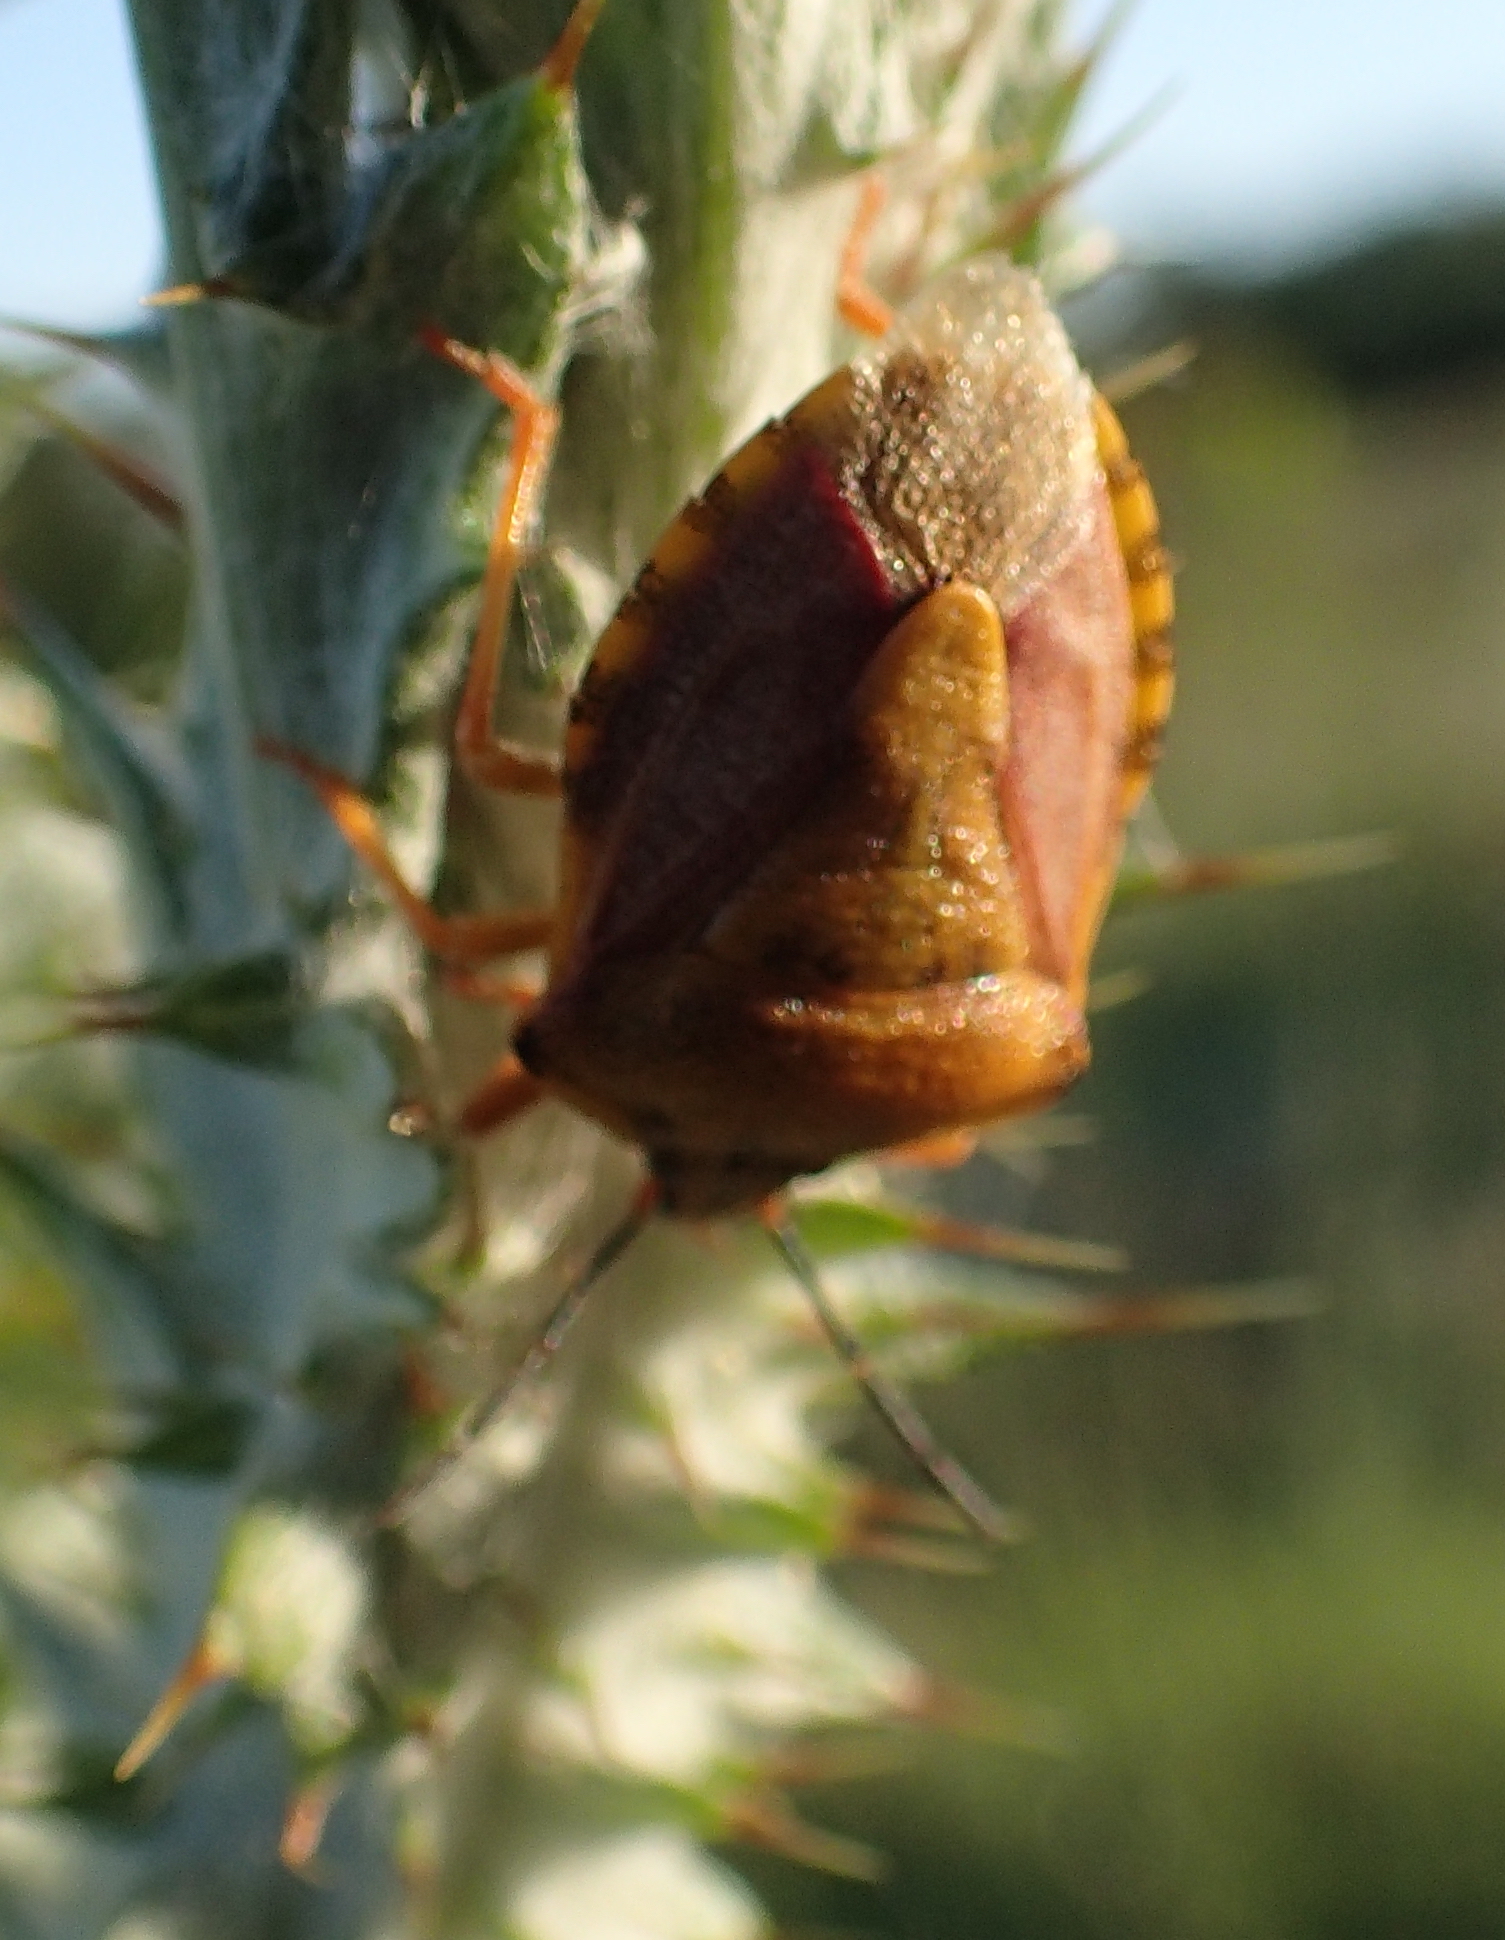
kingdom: Animalia
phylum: Arthropoda
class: Insecta
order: Hemiptera
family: Pentatomidae
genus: Carpocoris
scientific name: Carpocoris purpureipennis
